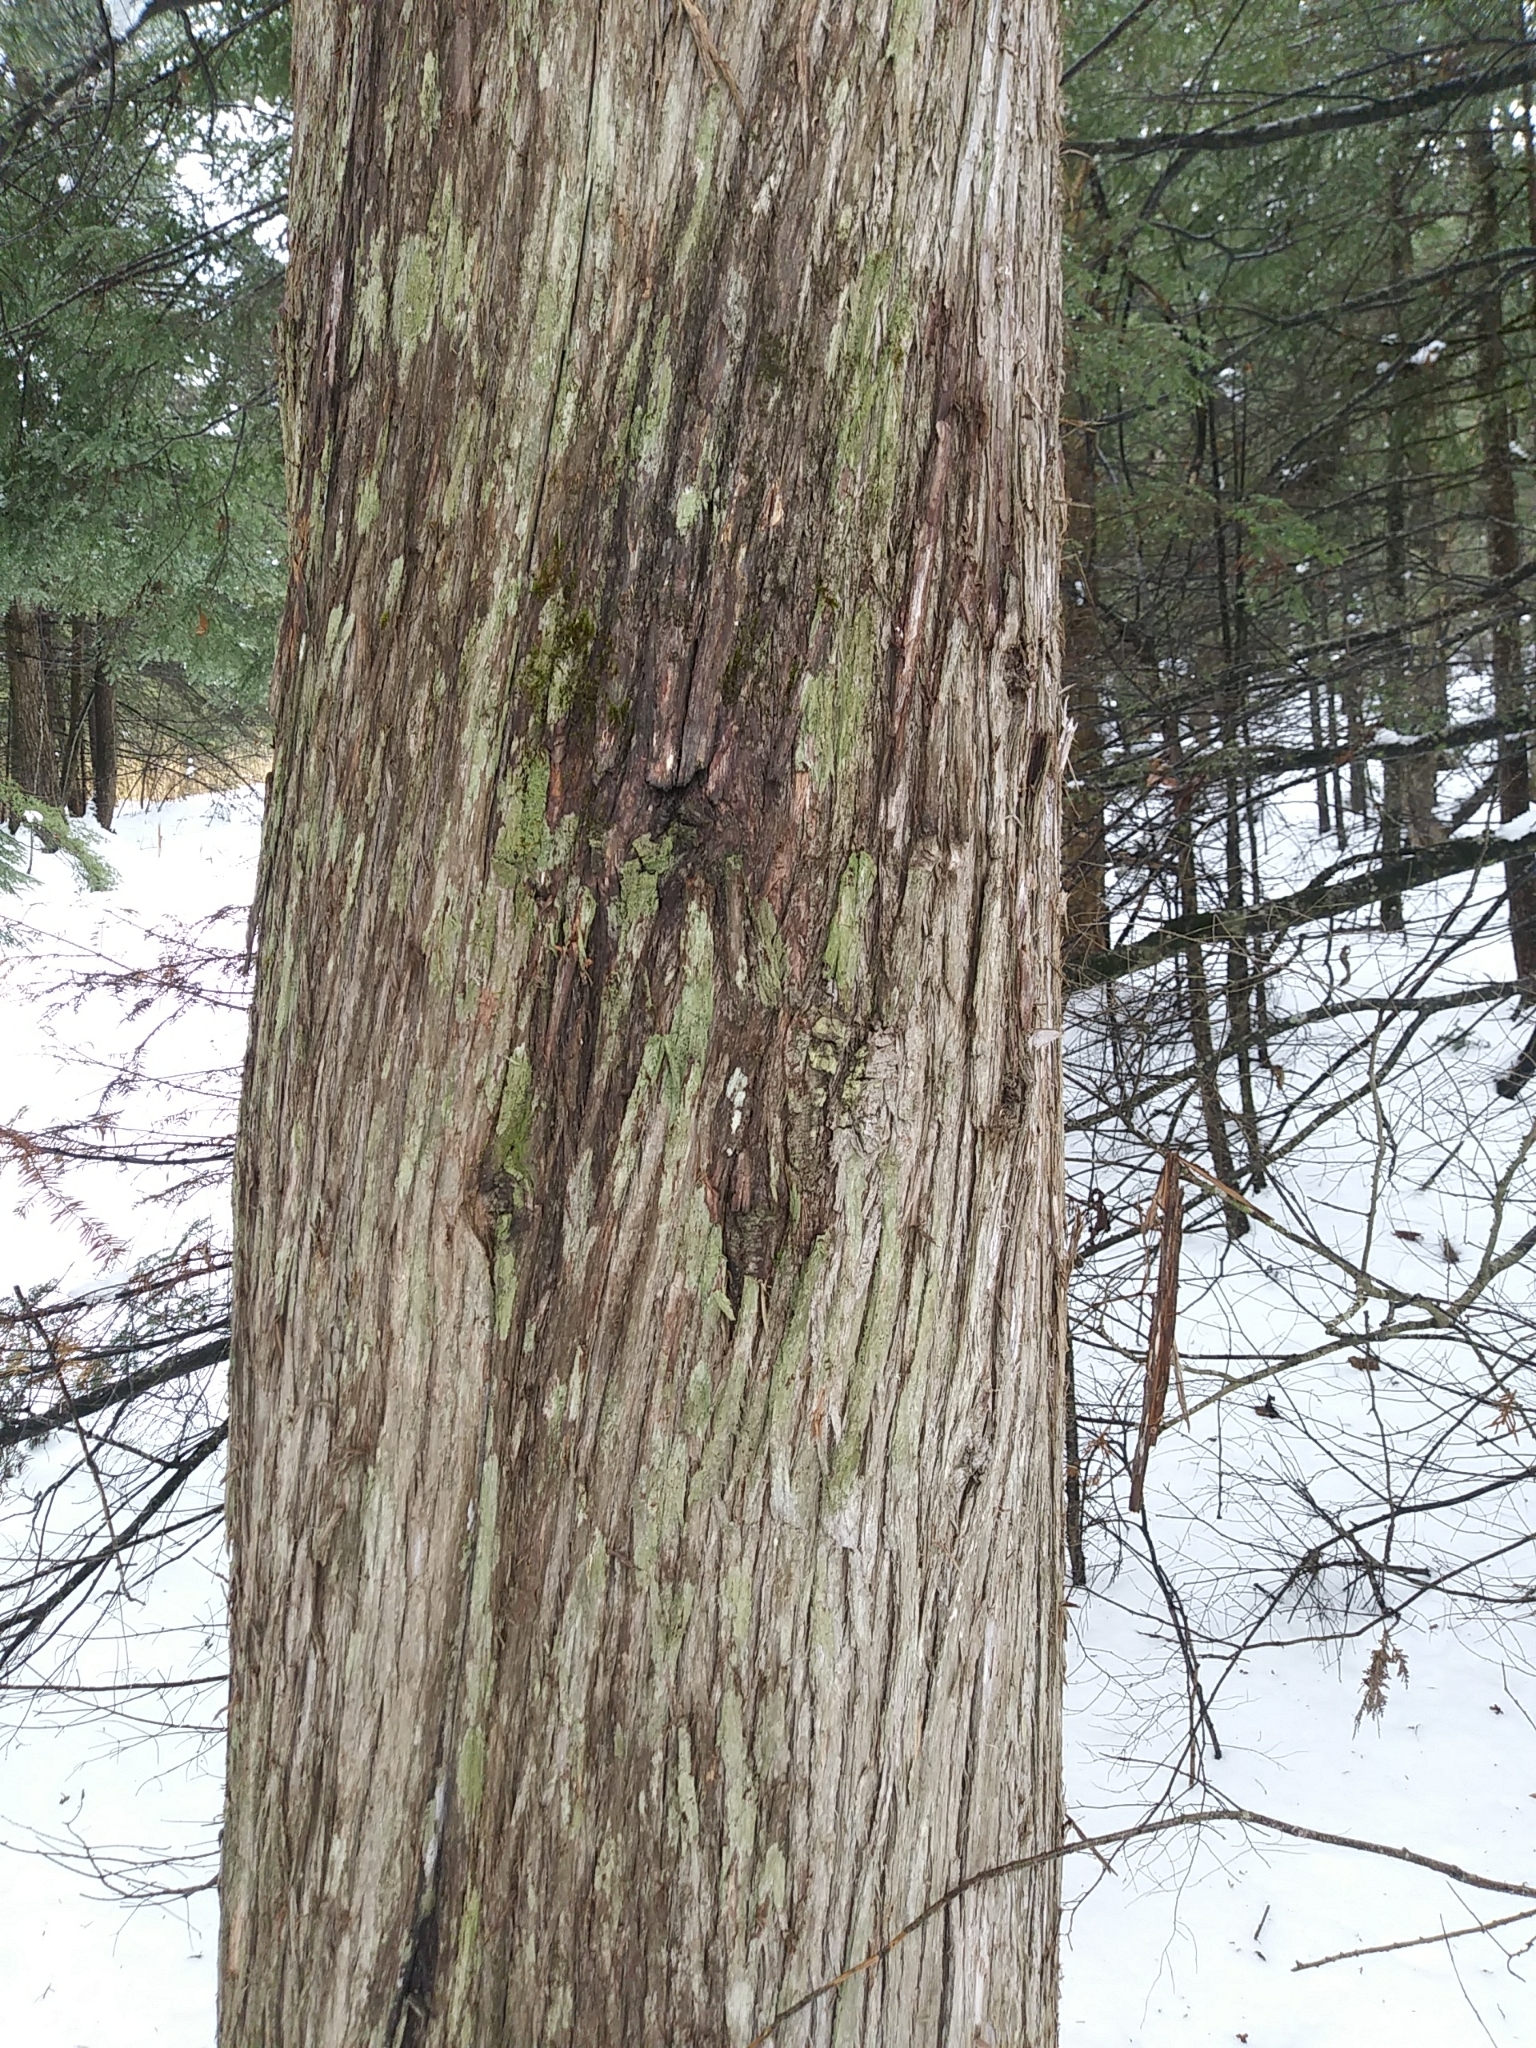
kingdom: Plantae
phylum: Tracheophyta
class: Pinopsida
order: Pinales
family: Cupressaceae
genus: Thuja
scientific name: Thuja occidentalis
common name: Northern white-cedar
